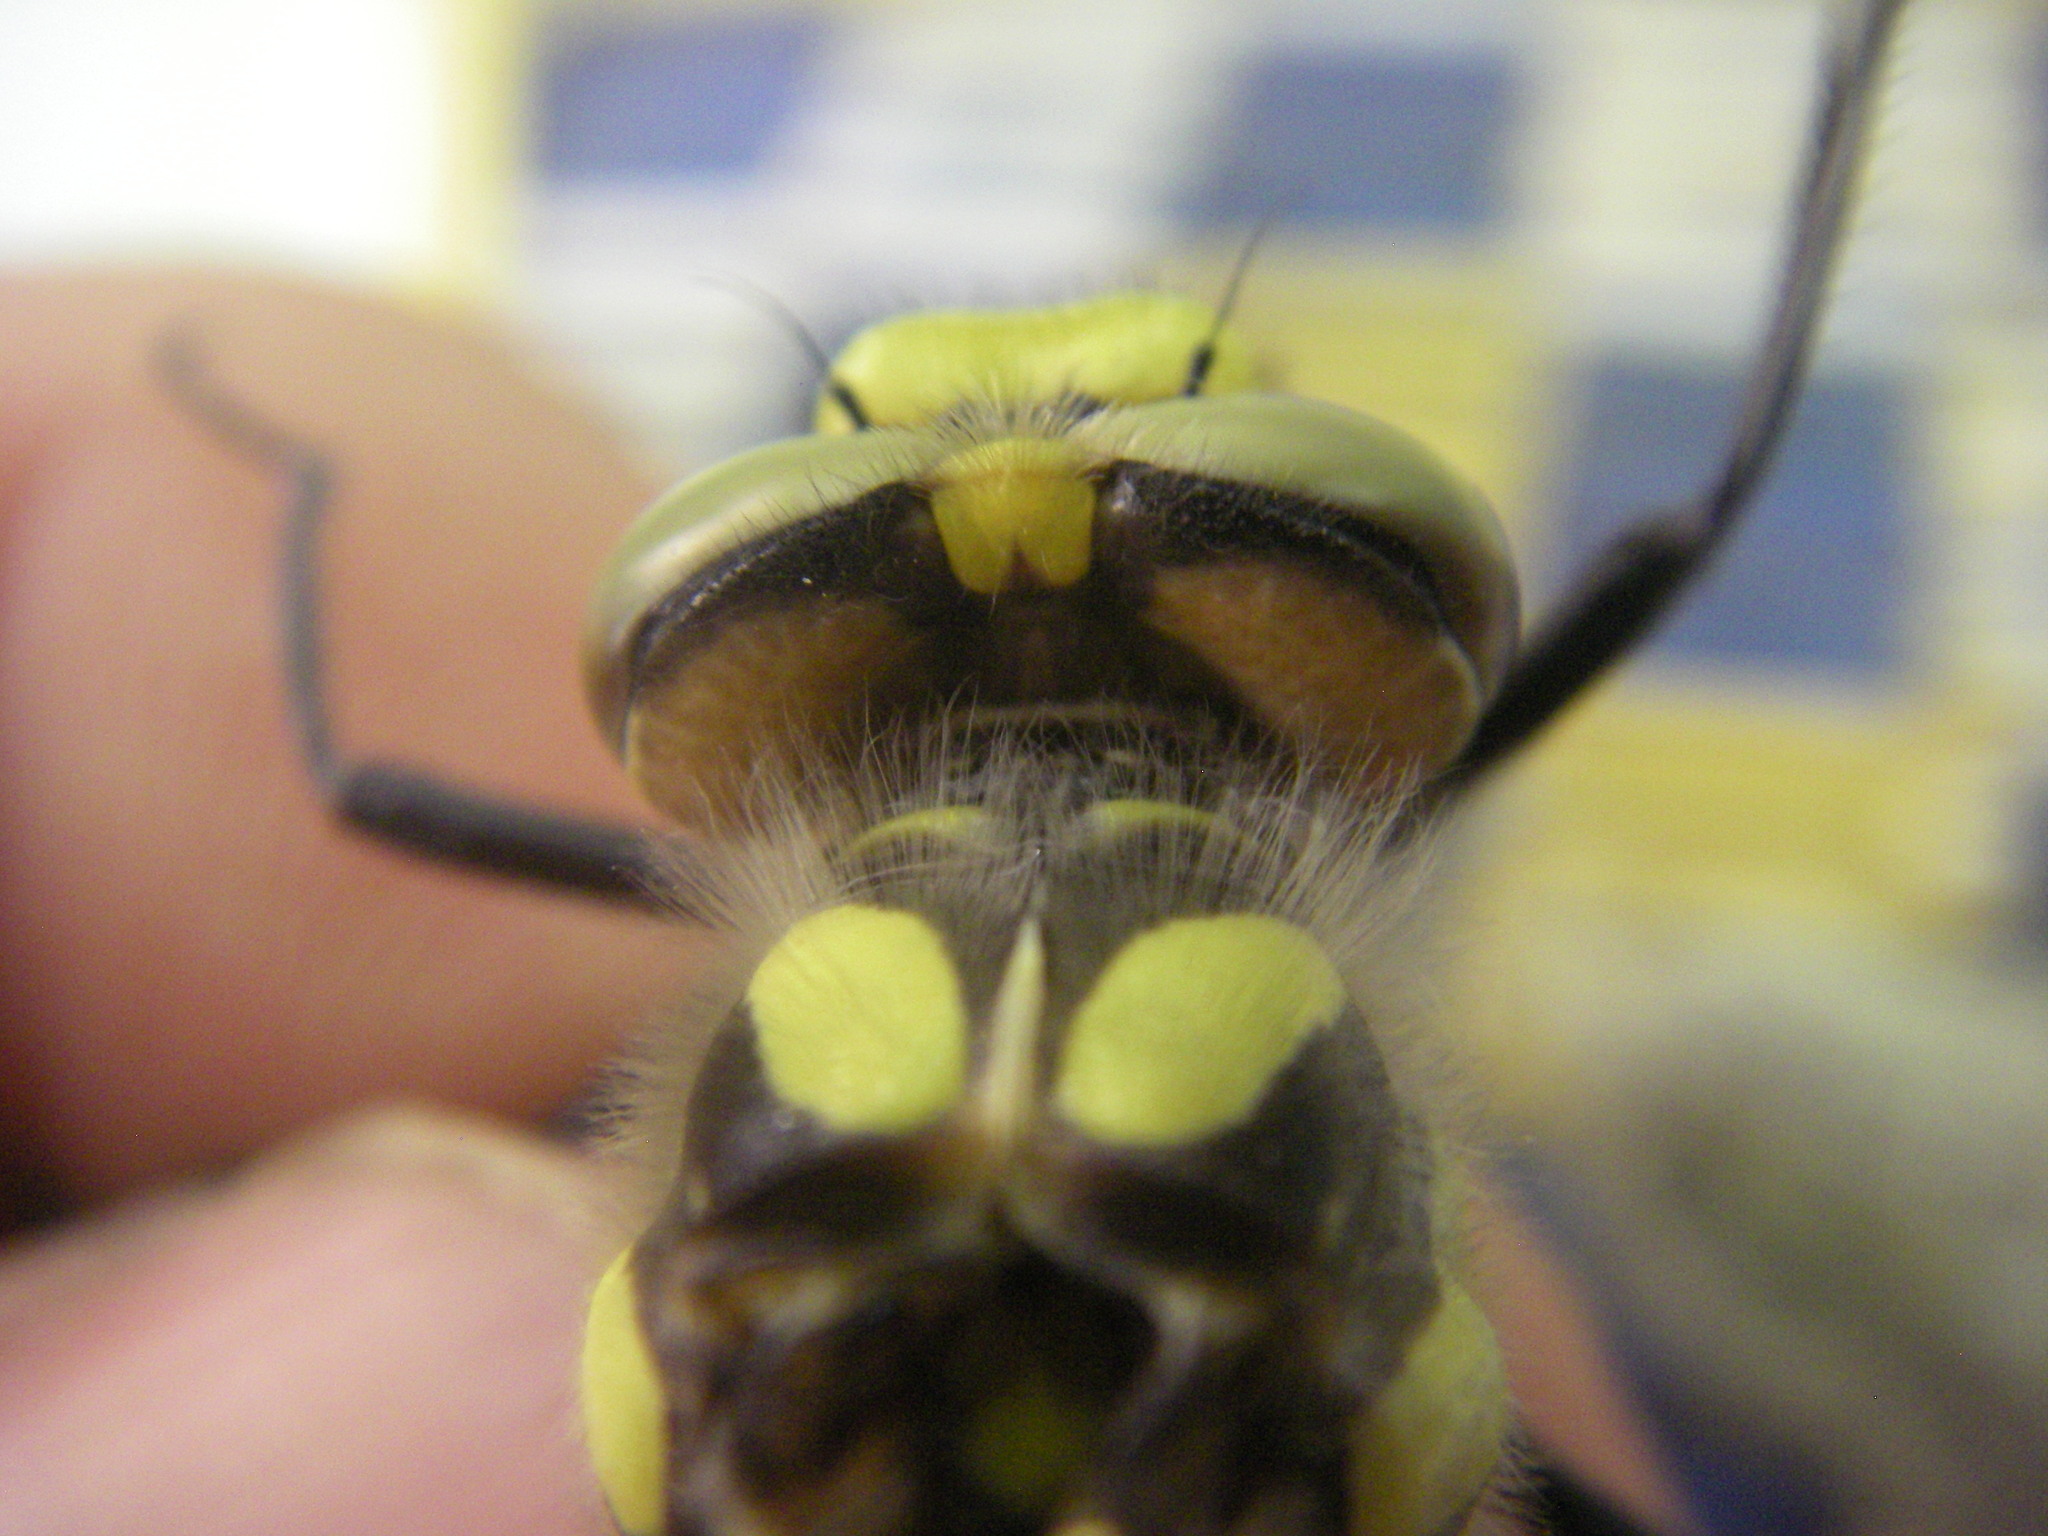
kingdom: Animalia
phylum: Arthropoda
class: Insecta
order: Odonata
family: Cordulegastridae
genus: Cordulegaster
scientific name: Cordulegaster princeps
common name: Atlas goldenring
